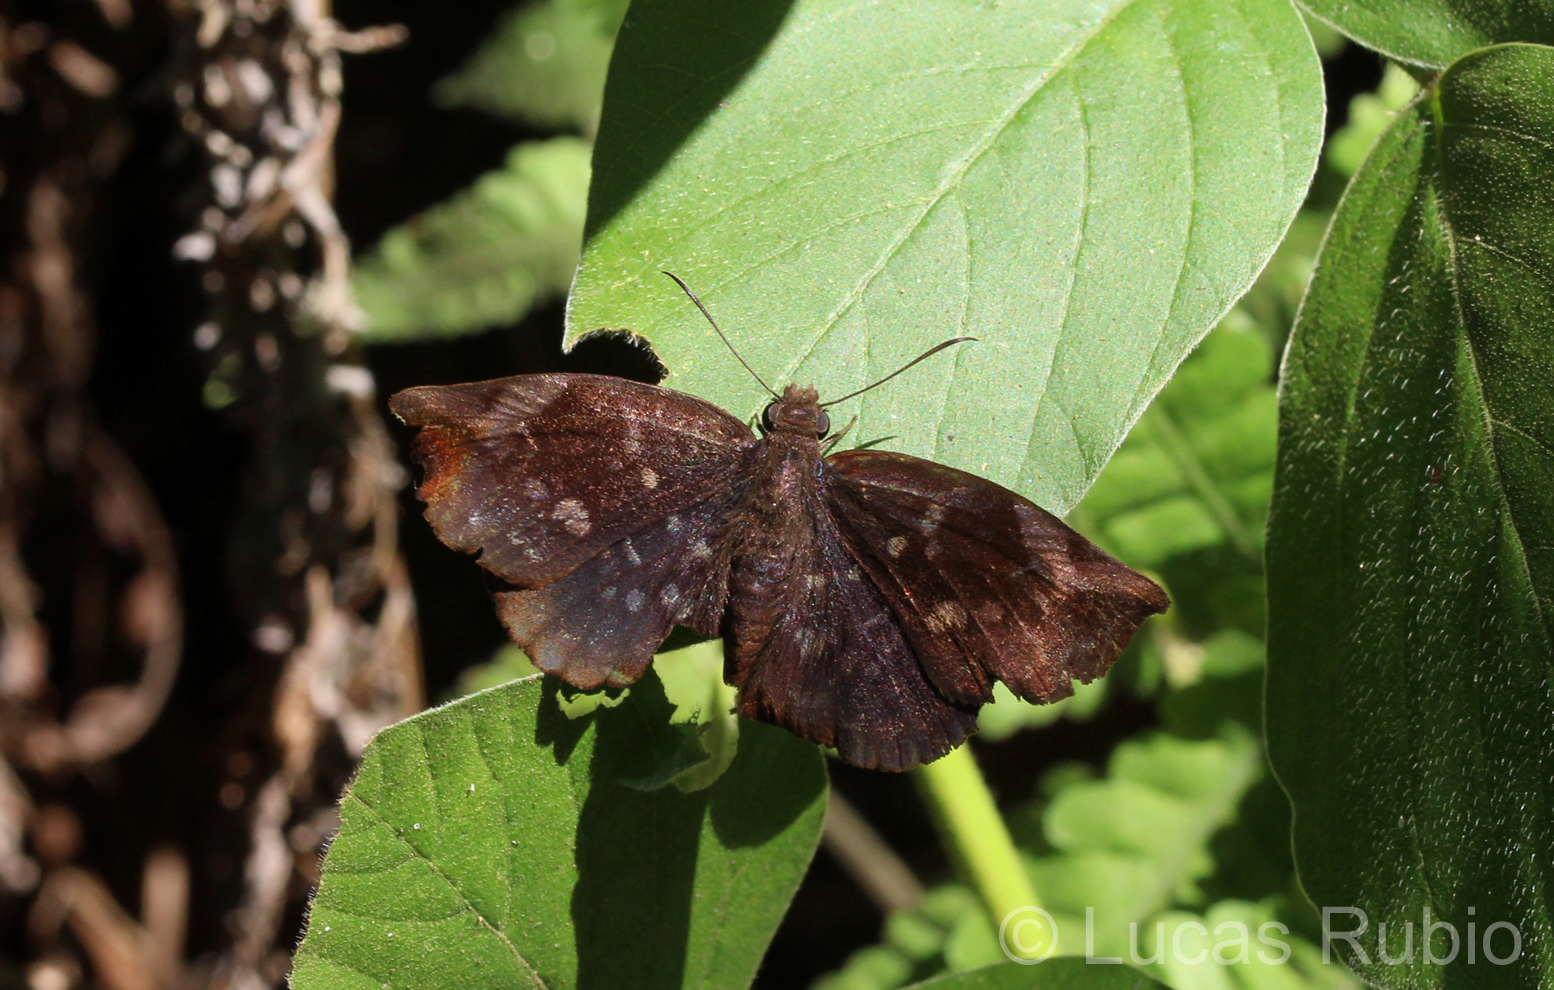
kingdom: Animalia
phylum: Arthropoda
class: Insecta
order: Lepidoptera
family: Hesperiidae
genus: Achlyodes
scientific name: Achlyodes thraso
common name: Sickle-winged skipper
